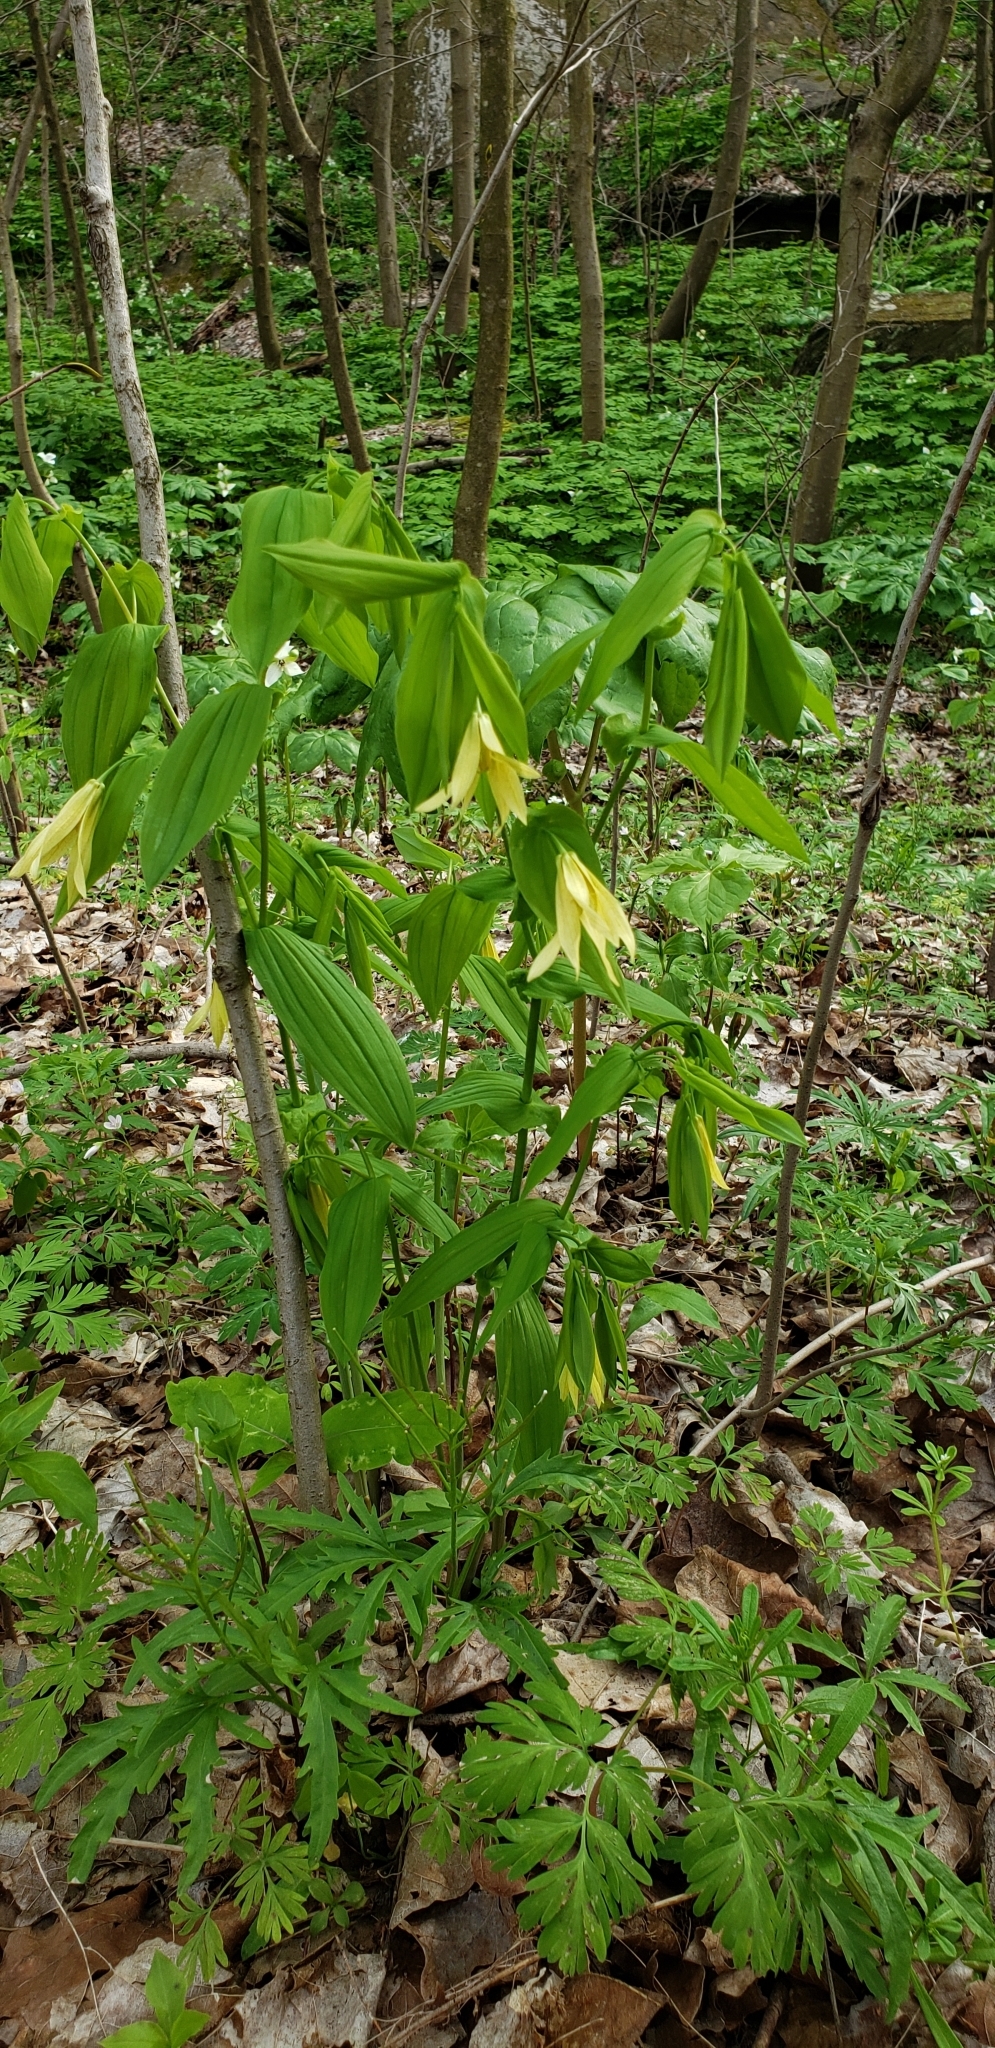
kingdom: Plantae
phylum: Tracheophyta
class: Liliopsida
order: Liliales
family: Colchicaceae
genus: Uvularia
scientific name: Uvularia grandiflora
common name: Bellwort
